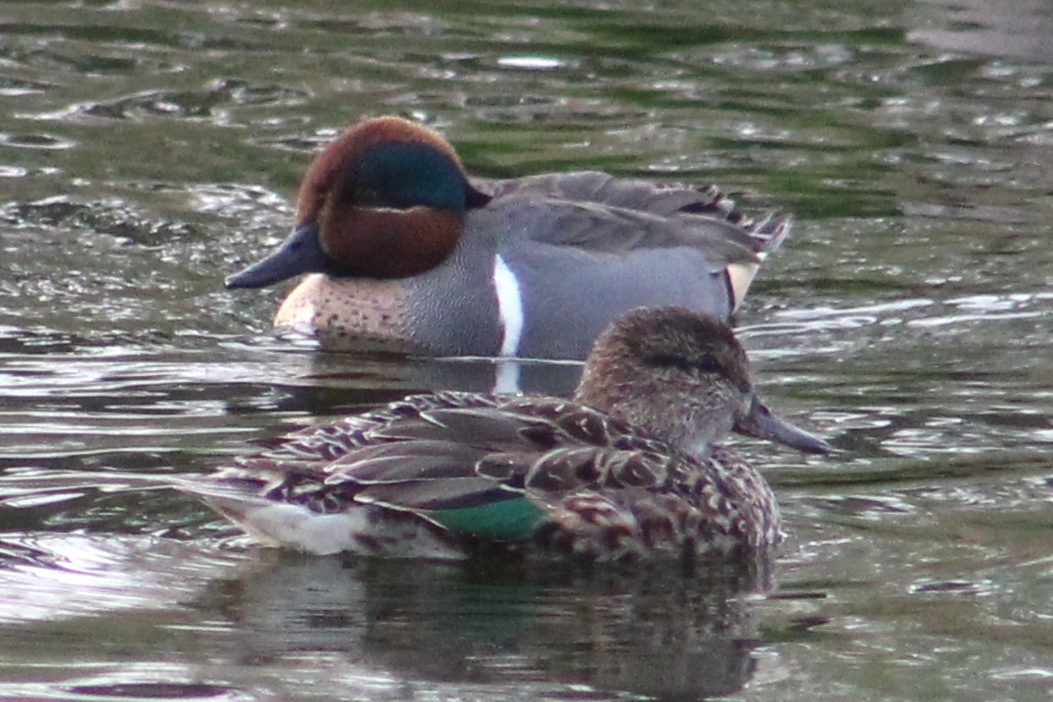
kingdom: Animalia
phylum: Chordata
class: Aves
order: Anseriformes
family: Anatidae
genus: Anas
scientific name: Anas crecca
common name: Eurasian teal
